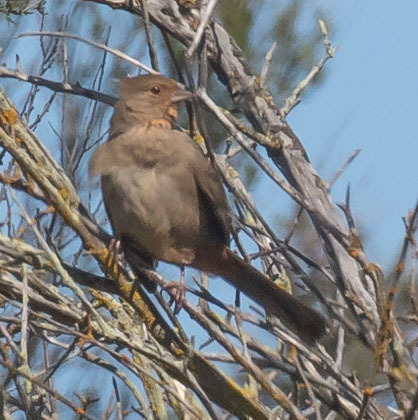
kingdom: Animalia
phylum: Chordata
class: Aves
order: Passeriformes
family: Passerellidae
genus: Melozone
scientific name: Melozone crissalis
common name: California towhee
